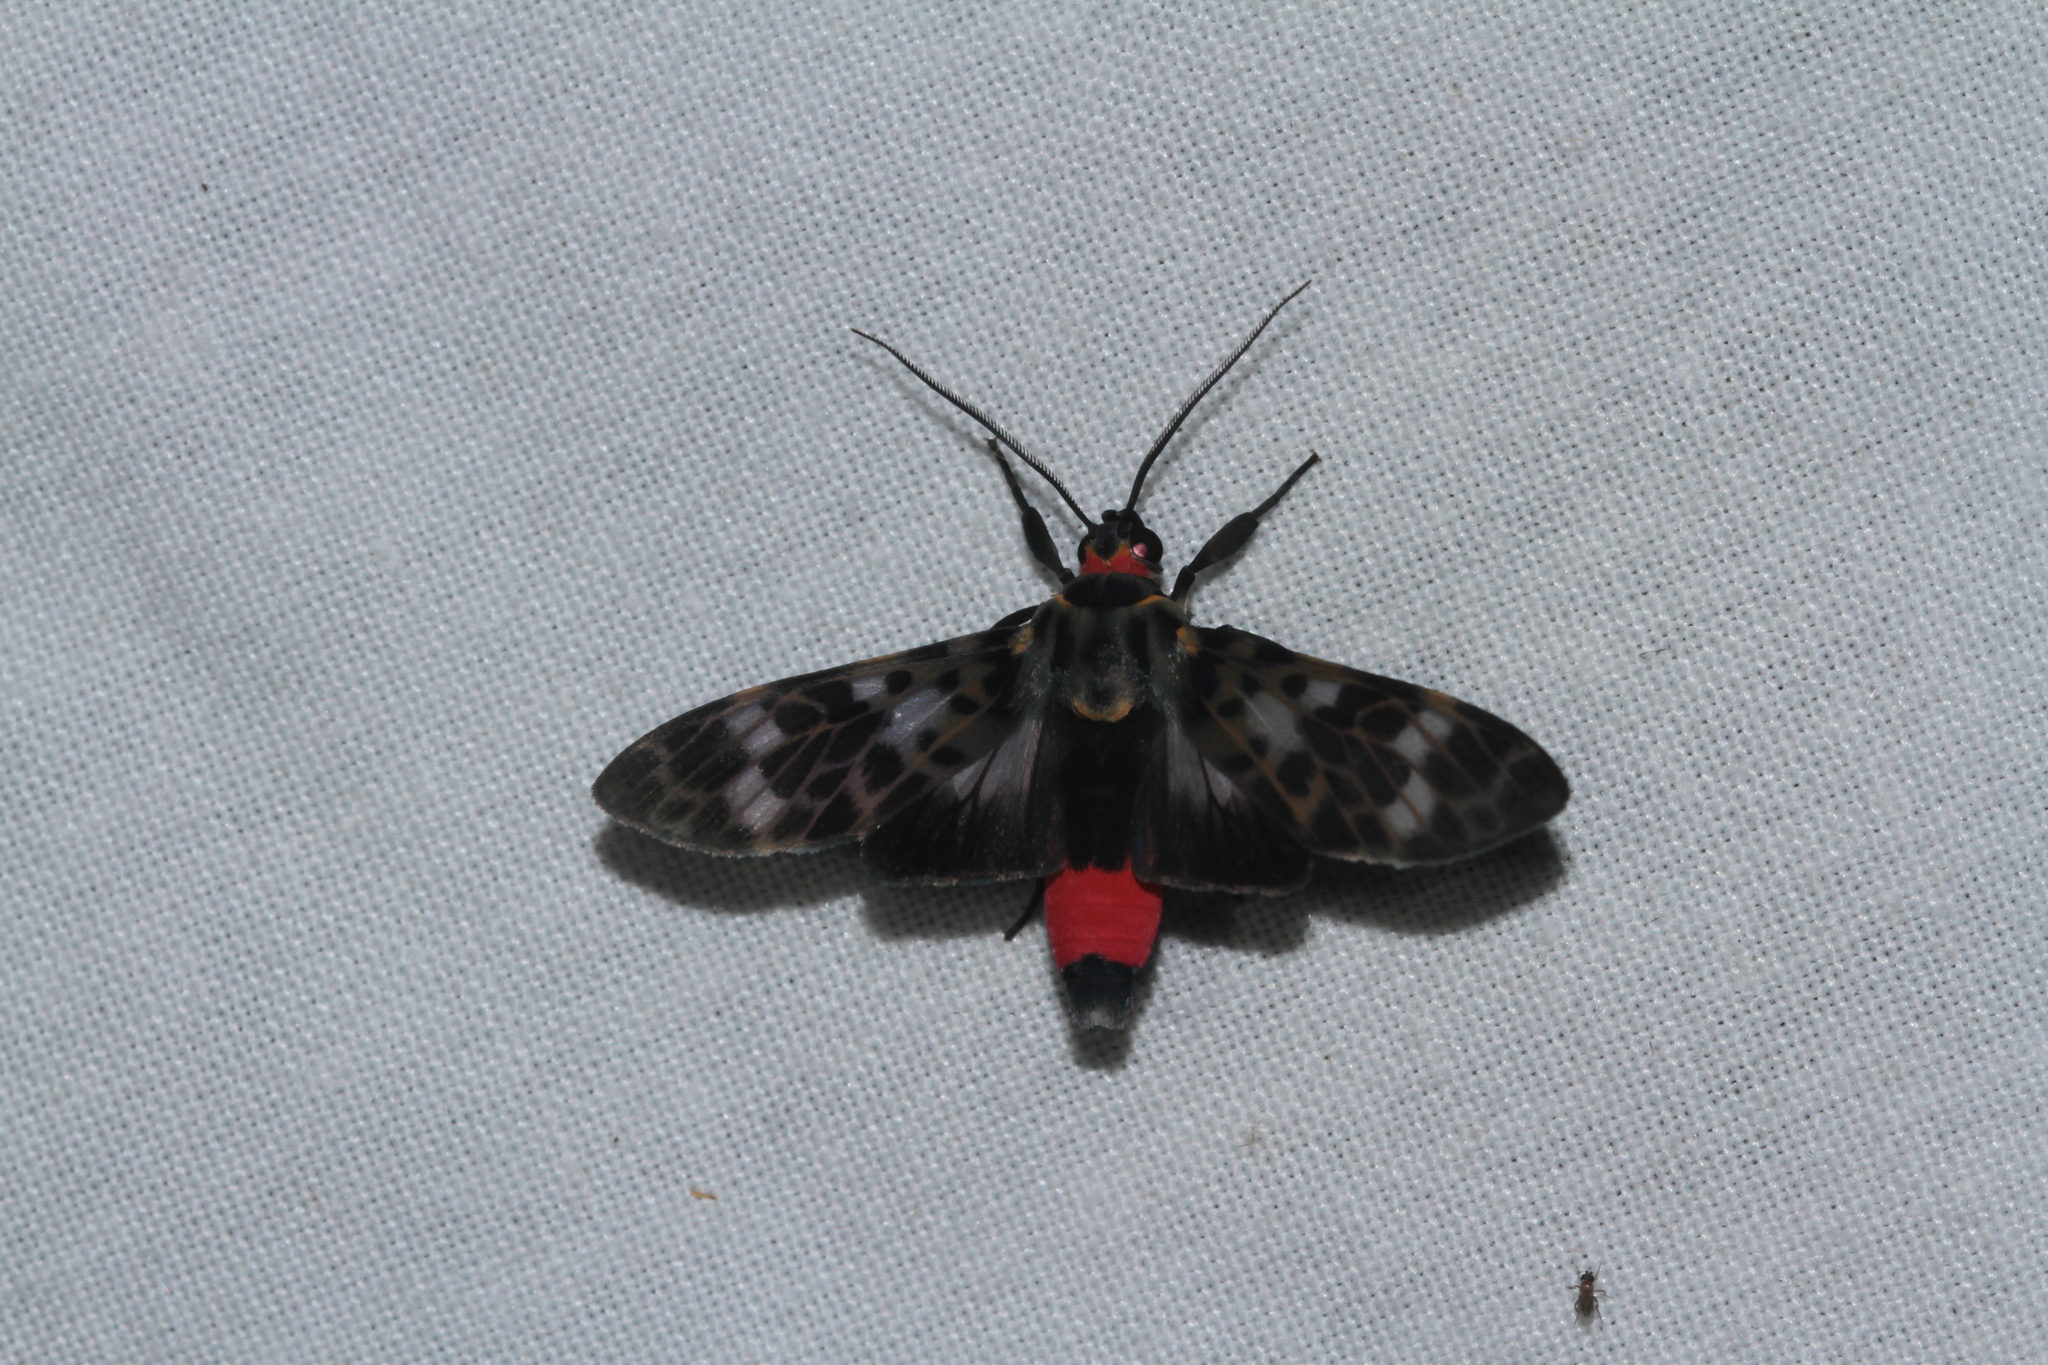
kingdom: Animalia
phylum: Arthropoda
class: Insecta
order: Lepidoptera
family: Erebidae
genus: Eucereon
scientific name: Eucereon metoidesis
